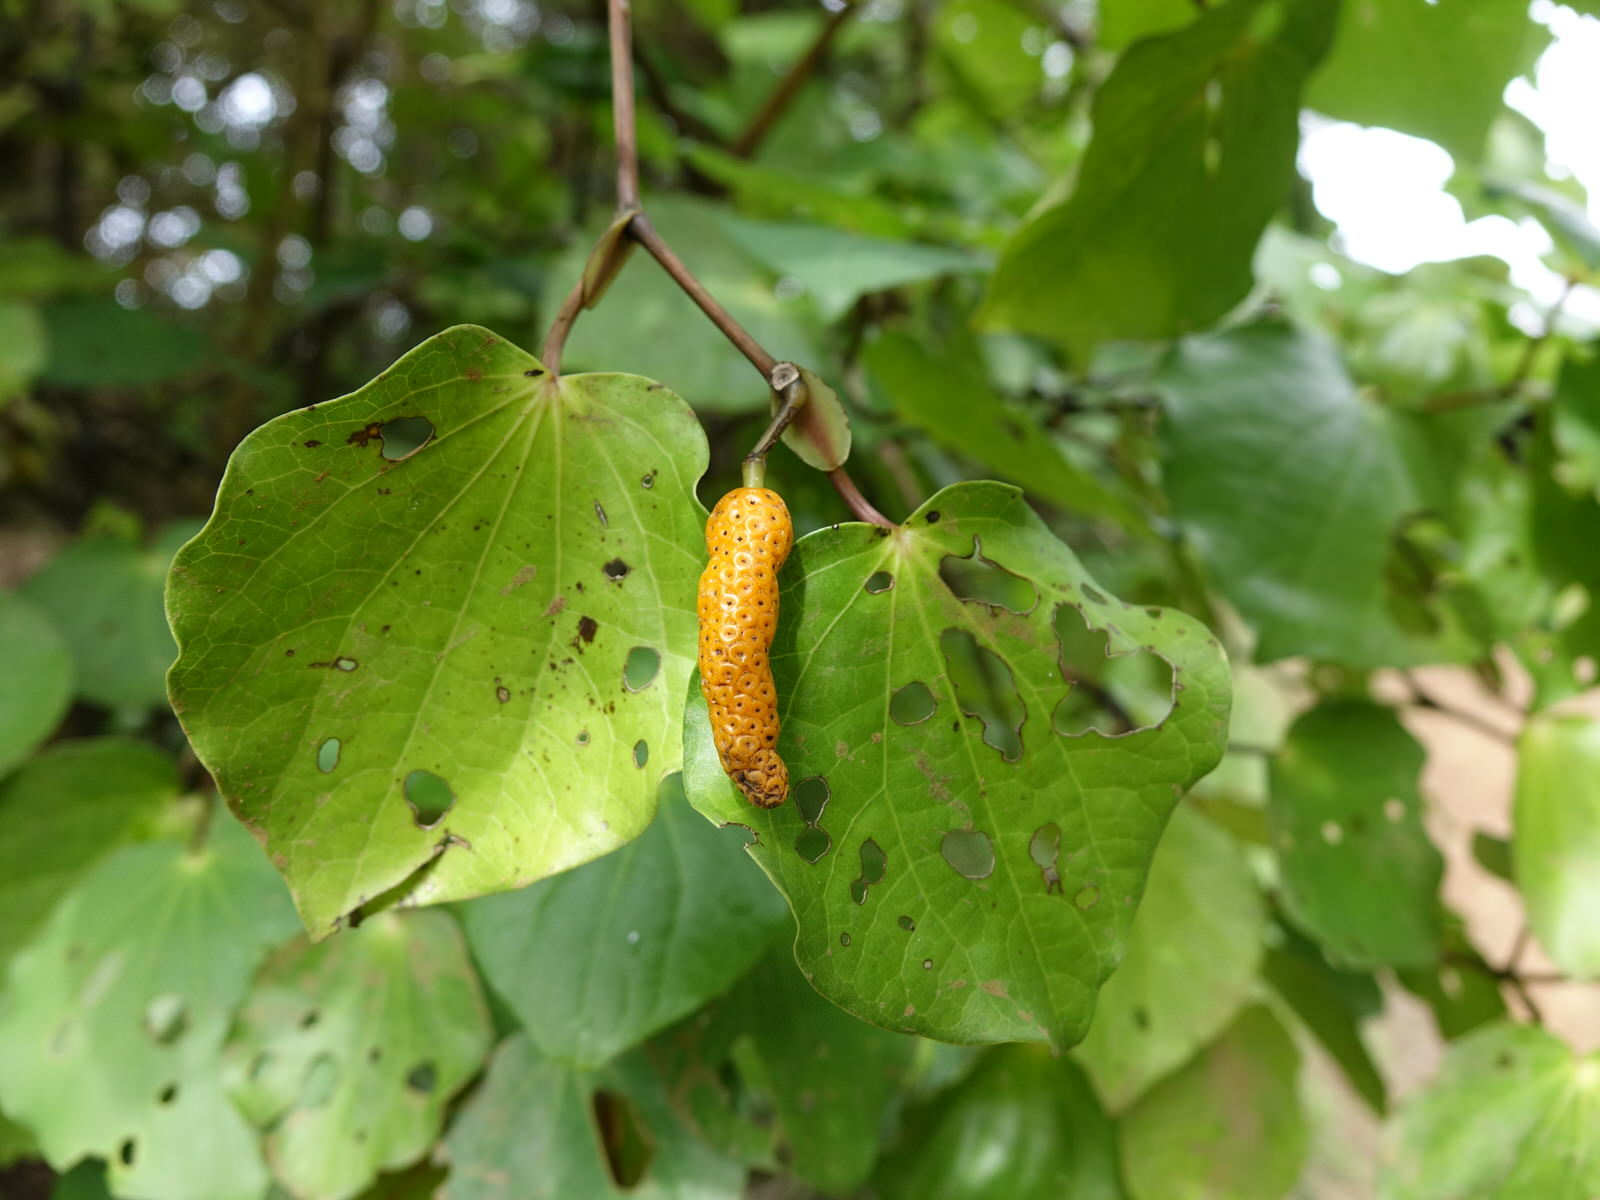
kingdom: Plantae
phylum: Tracheophyta
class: Magnoliopsida
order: Piperales
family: Piperaceae
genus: Macropiper
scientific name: Macropiper excelsum
